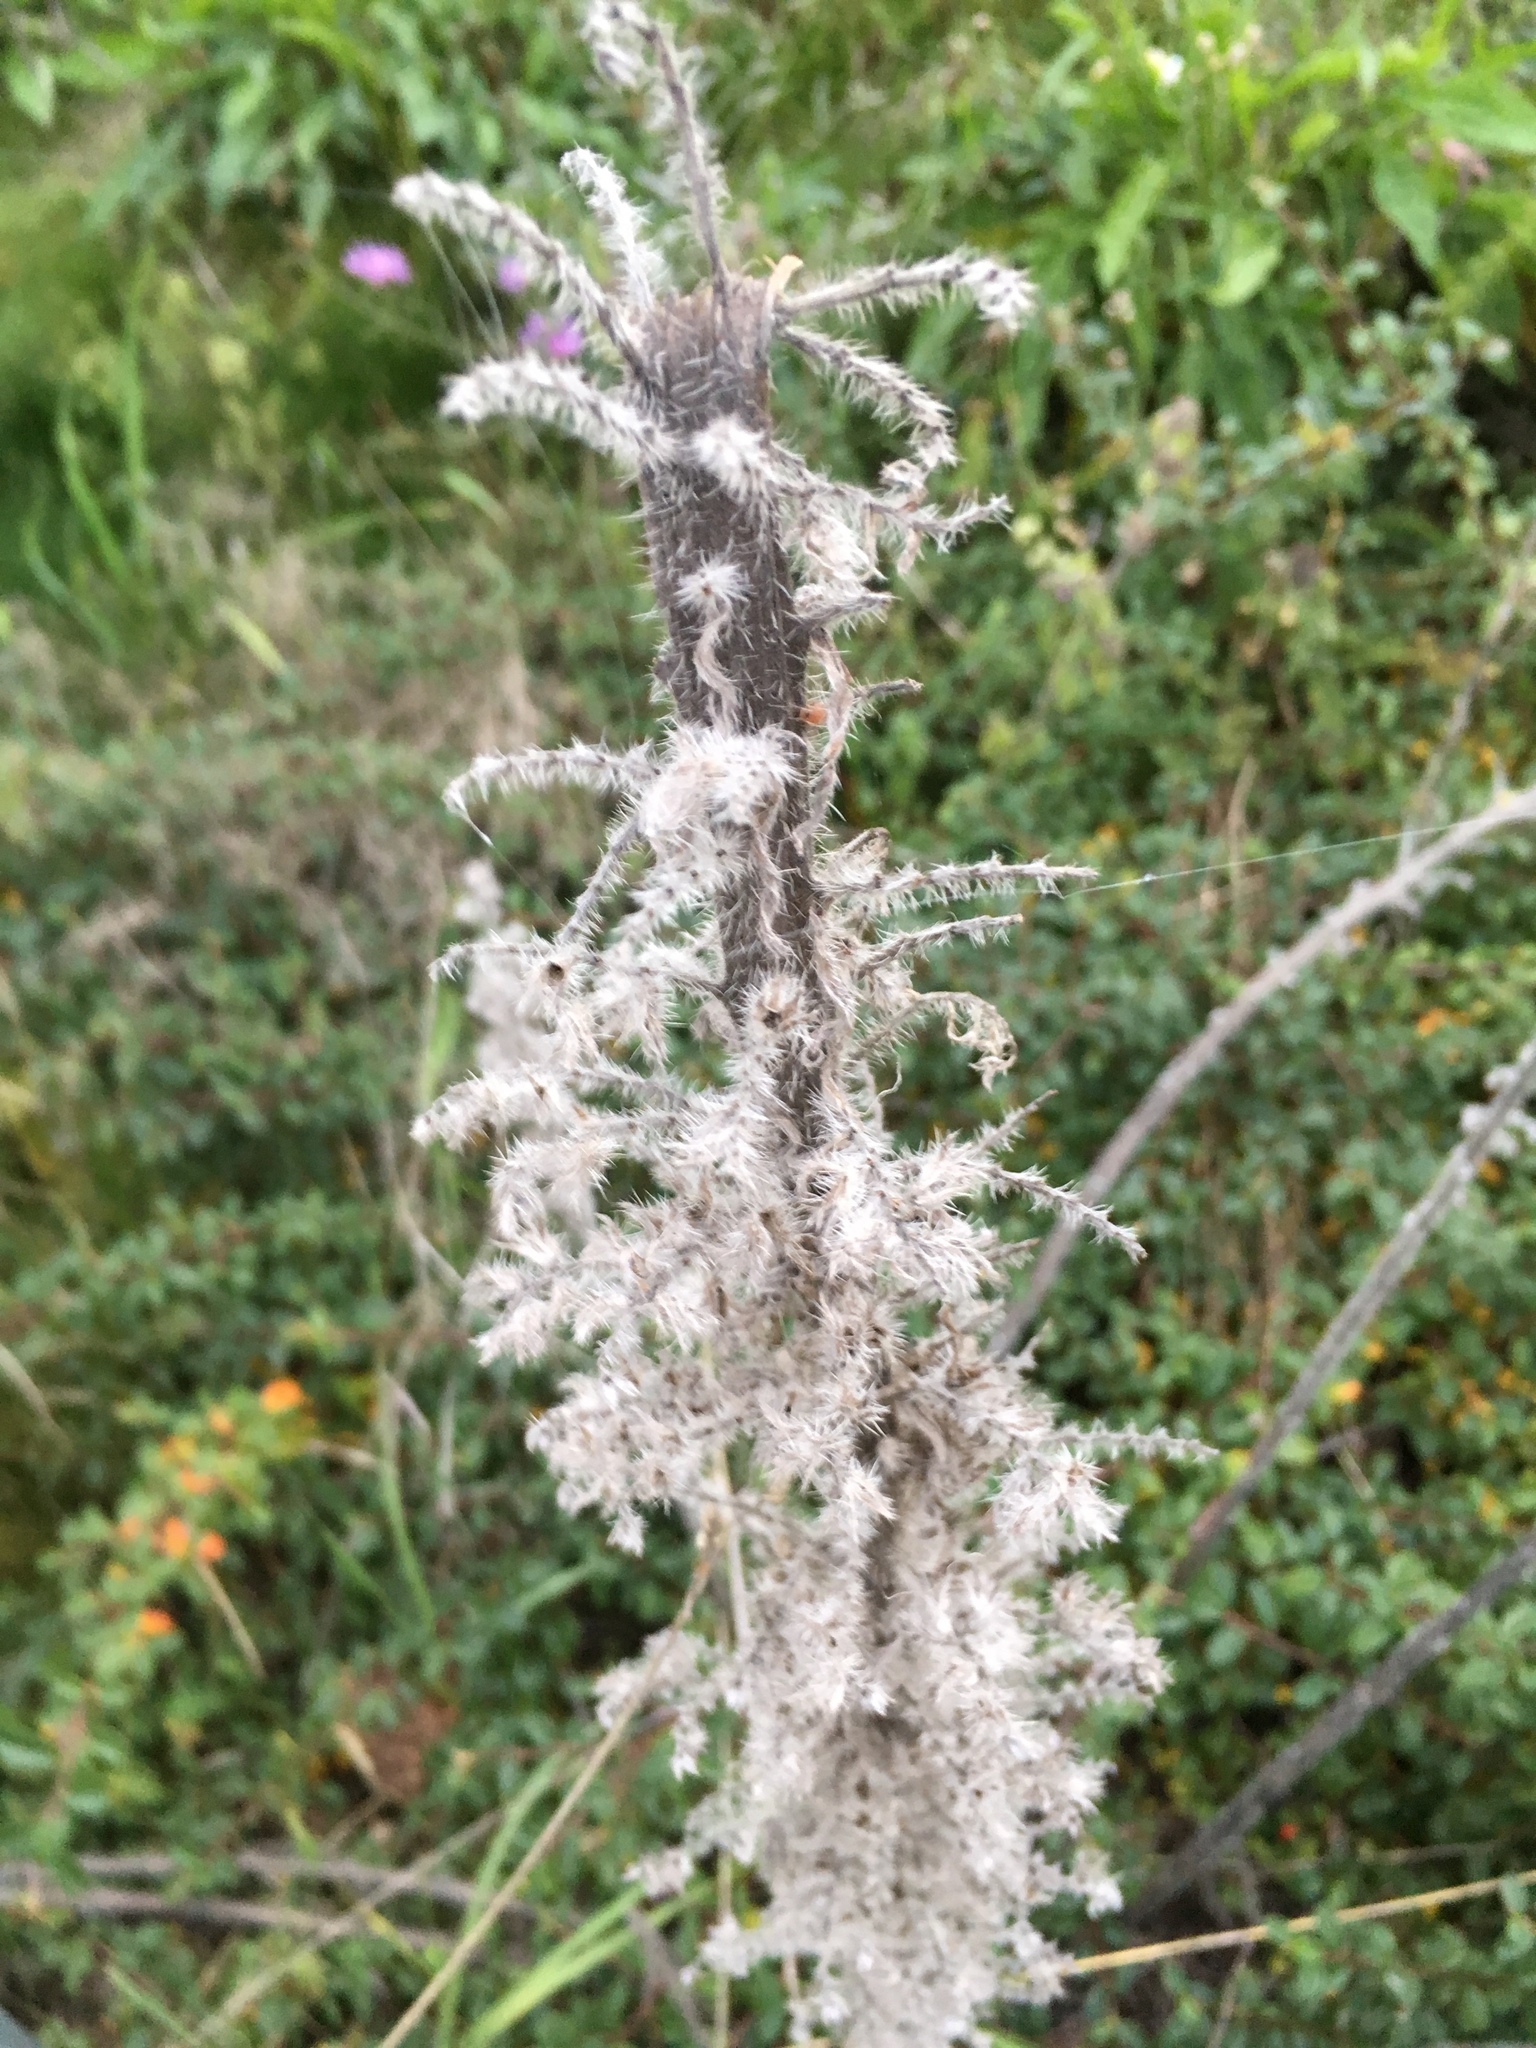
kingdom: Plantae
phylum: Tracheophyta
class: Magnoliopsida
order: Boraginales
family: Boraginaceae
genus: Echium
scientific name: Echium vulgare
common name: Common viper's bugloss
